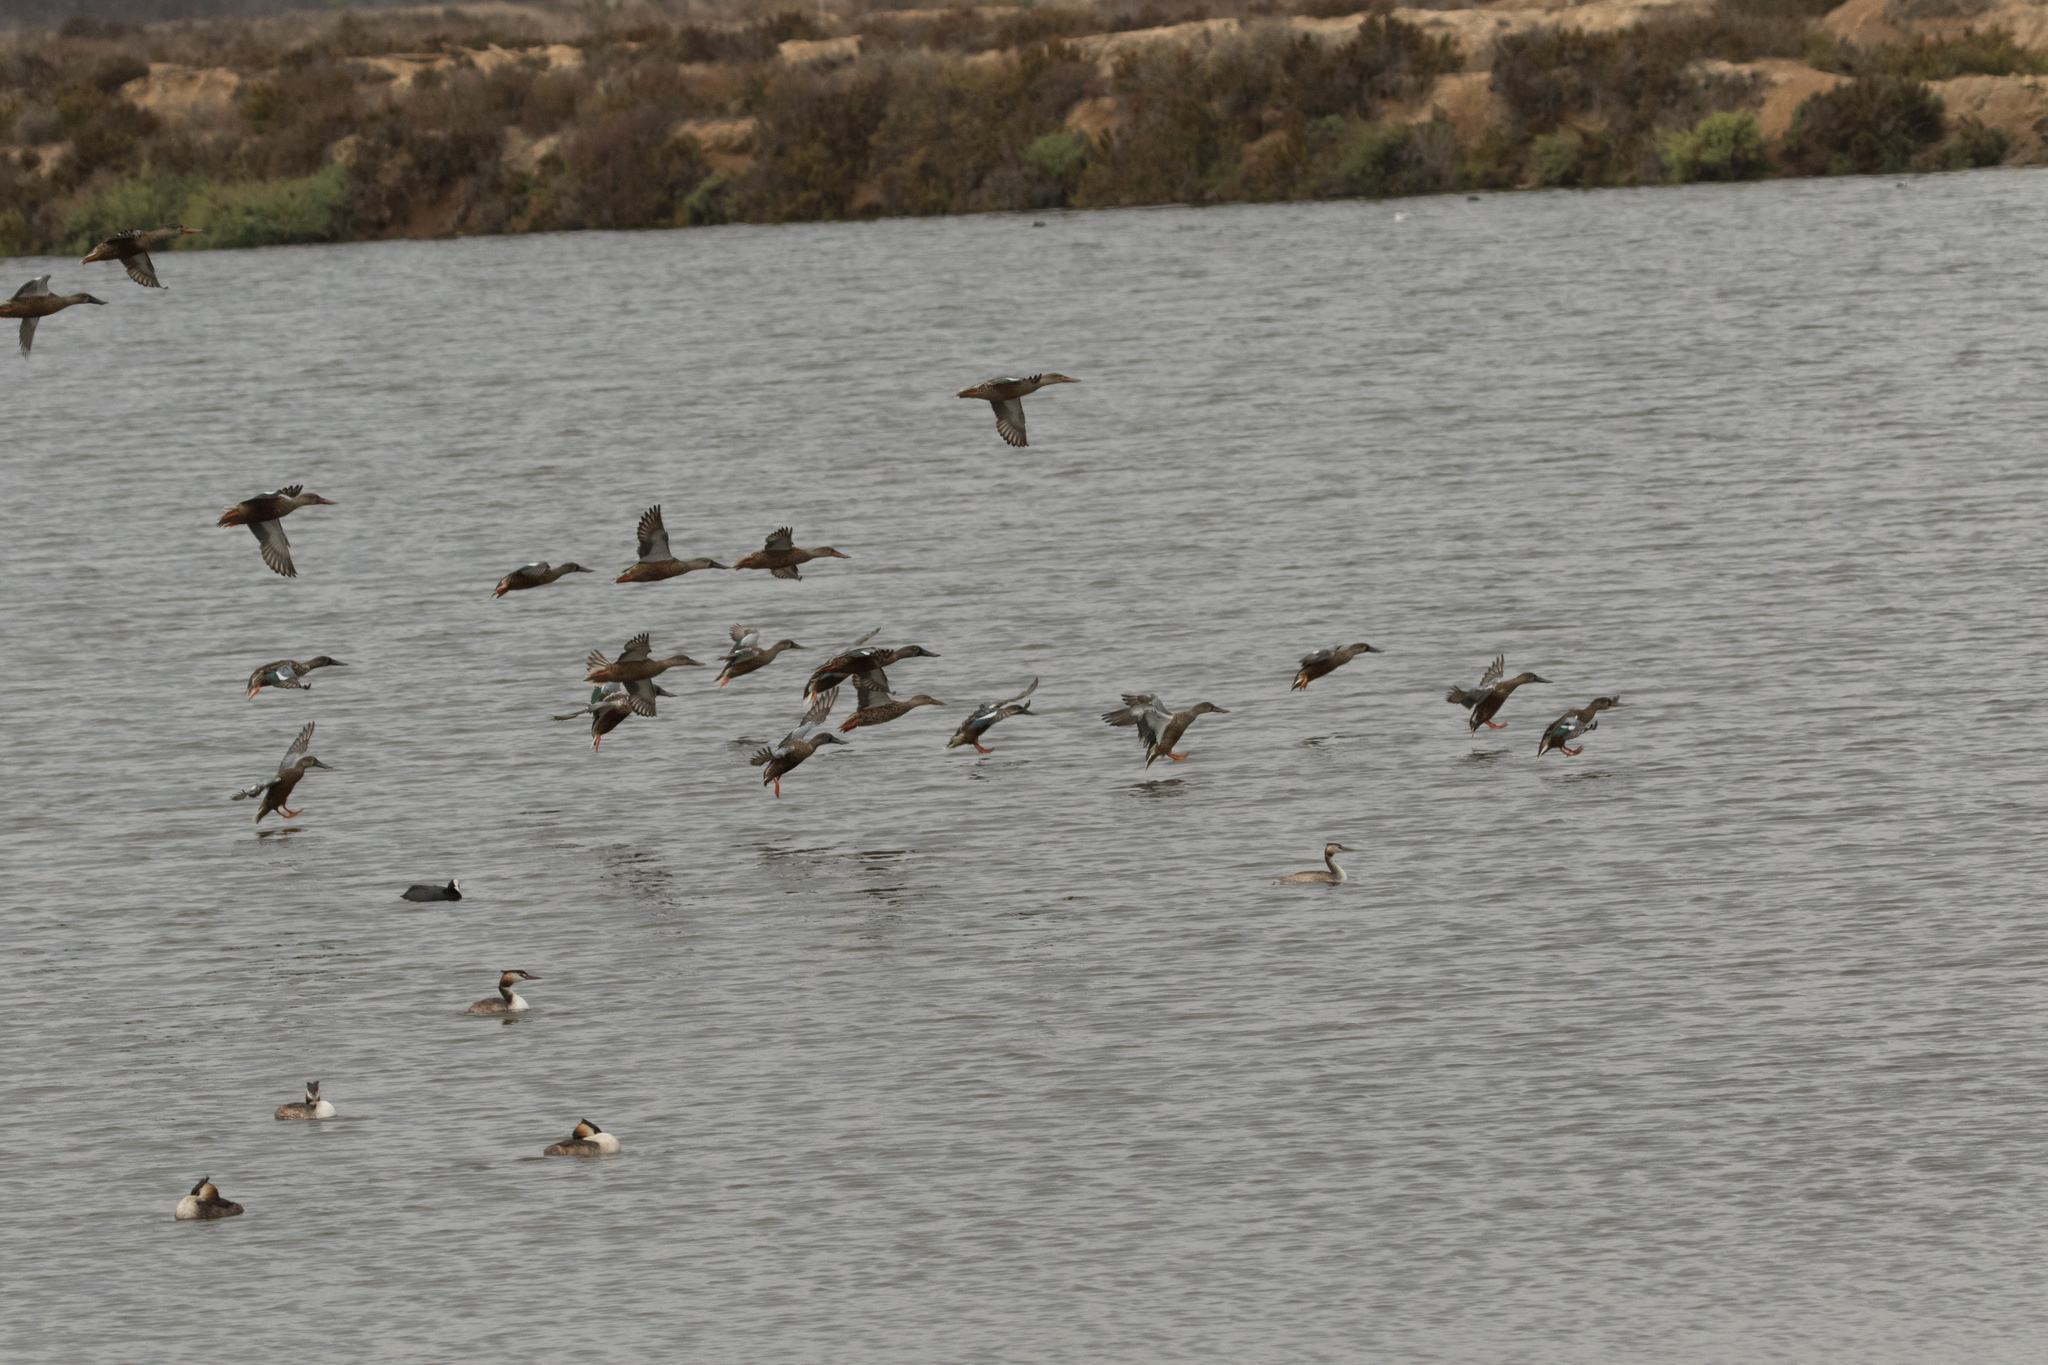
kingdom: Animalia
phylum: Chordata
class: Aves
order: Podicipediformes
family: Podicipedidae
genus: Podiceps
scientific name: Podiceps cristatus
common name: Great crested grebe
